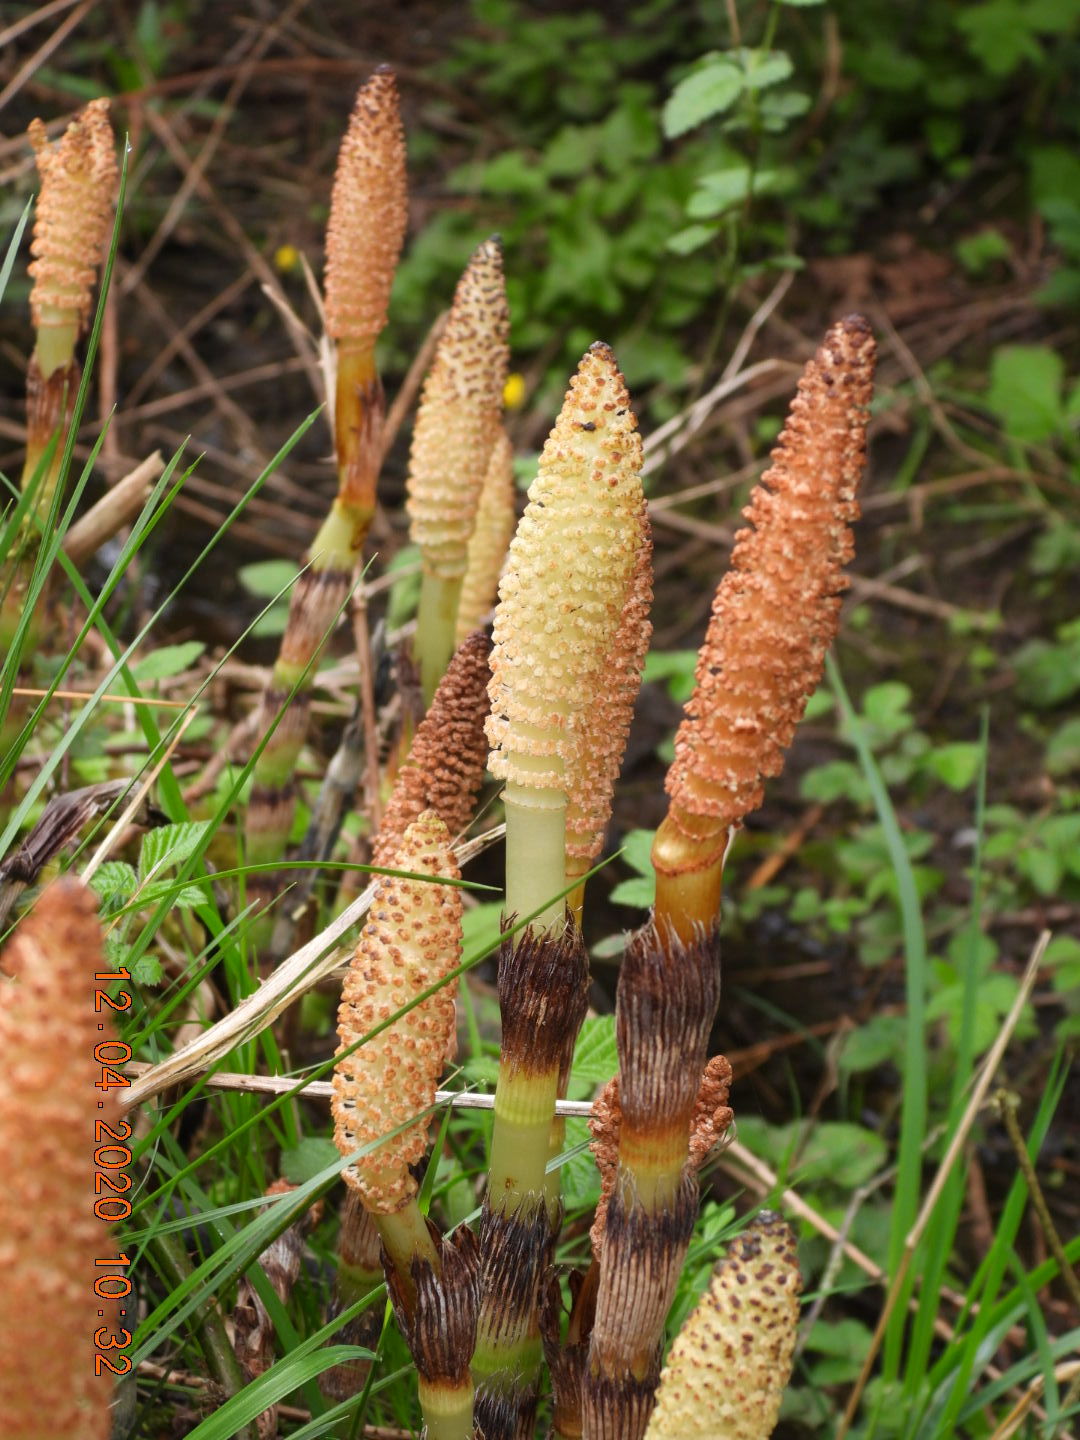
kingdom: Plantae
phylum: Tracheophyta
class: Polypodiopsida
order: Equisetales
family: Equisetaceae
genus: Equisetum
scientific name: Equisetum telmateia
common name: Great horsetail
